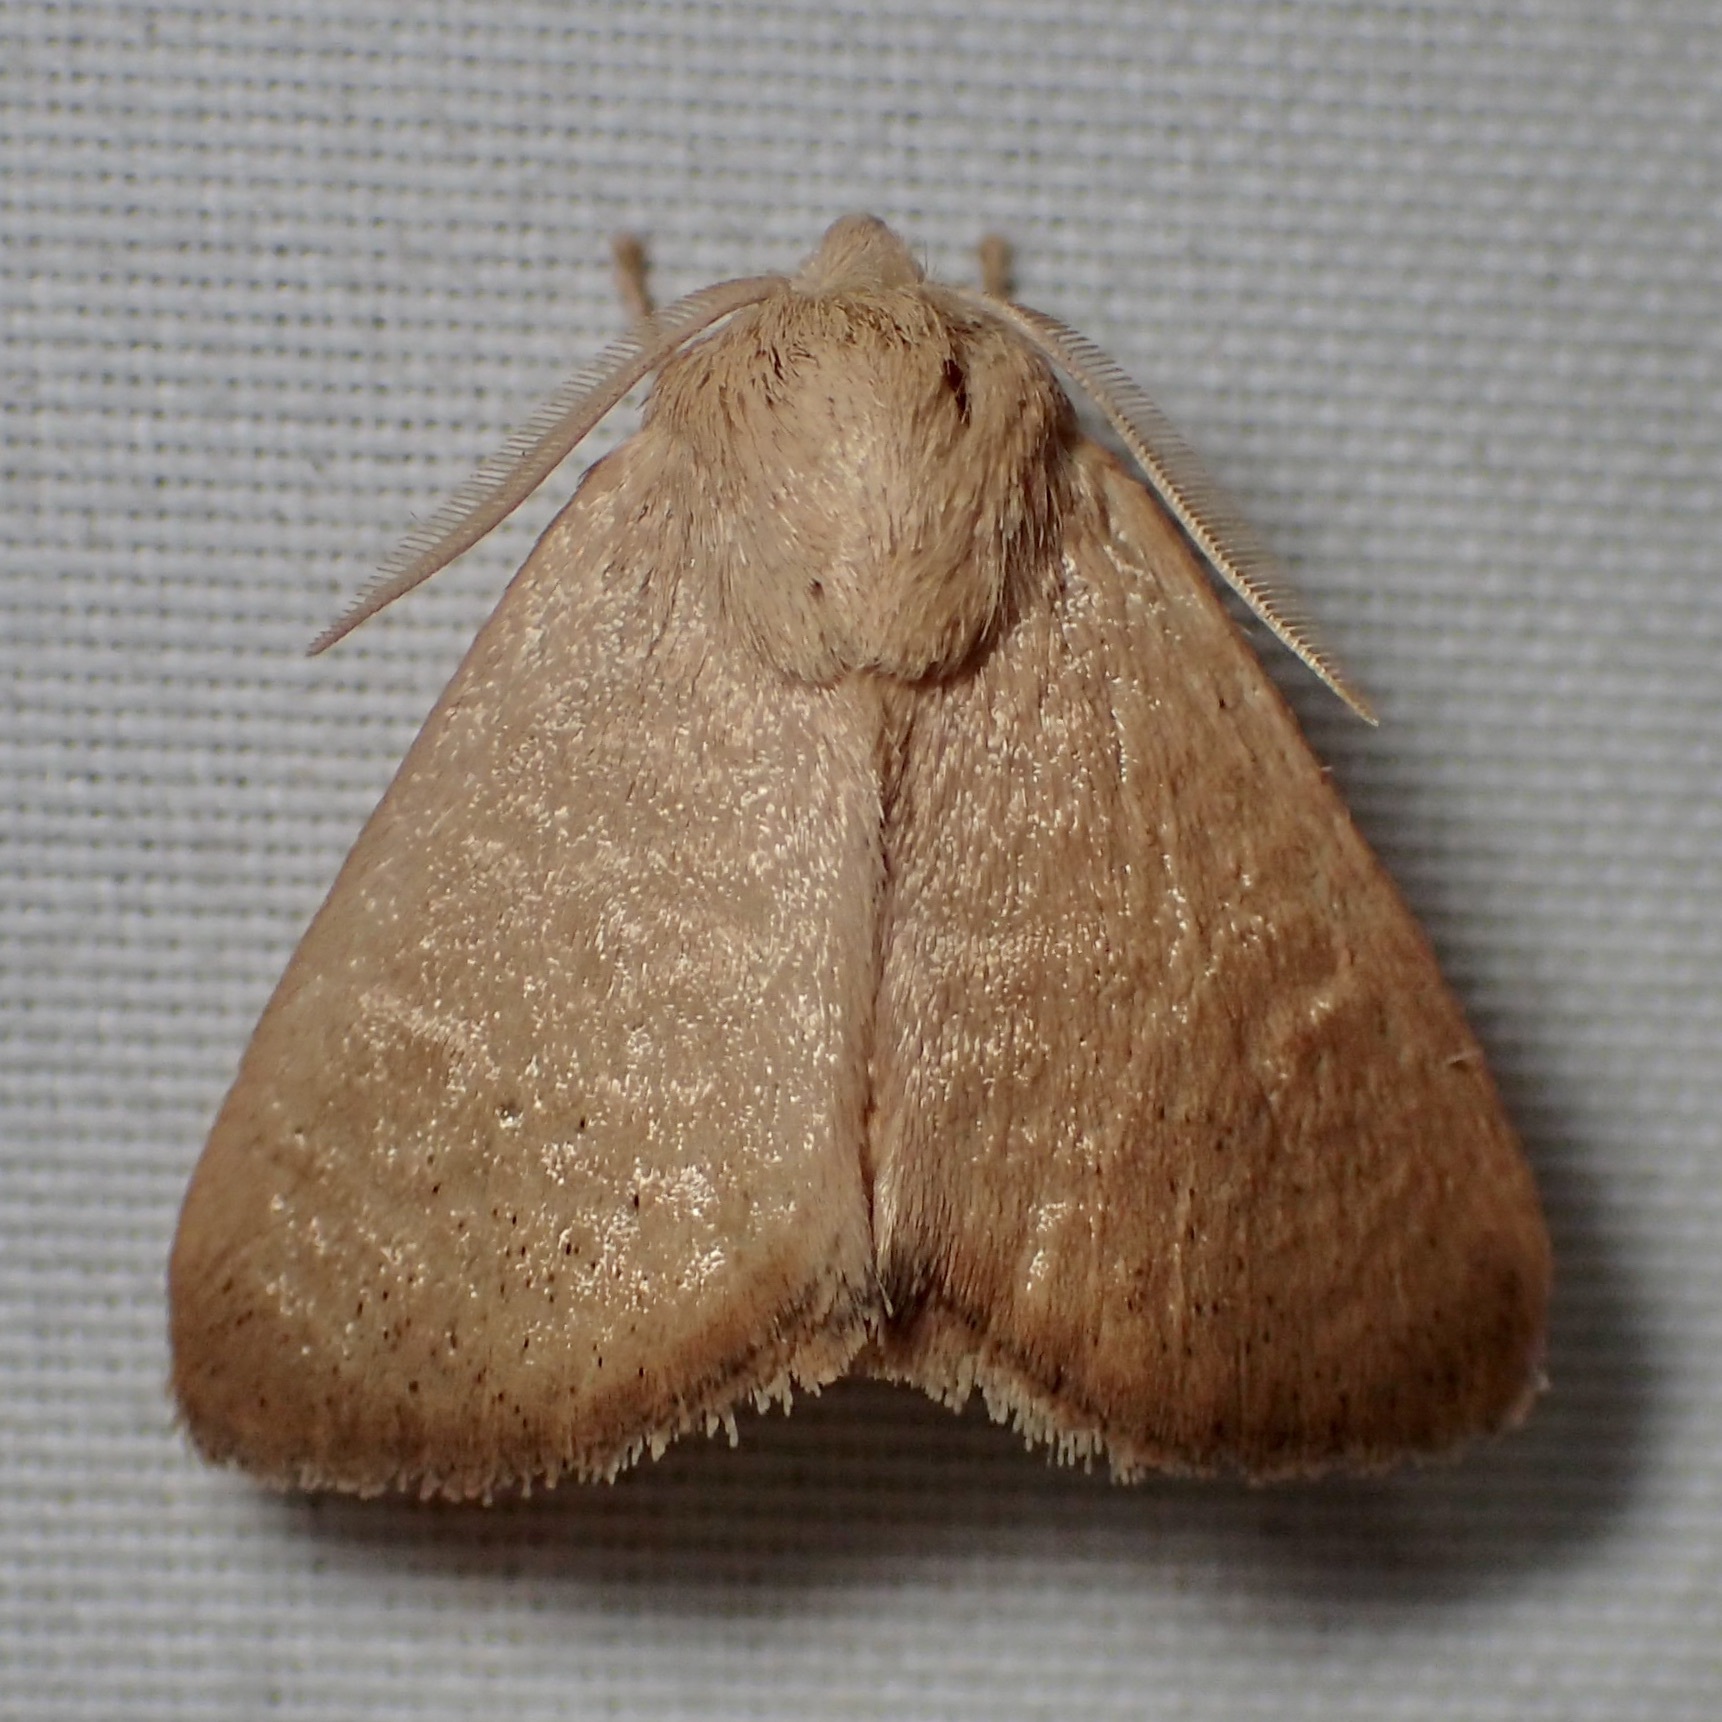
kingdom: Animalia
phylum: Arthropoda
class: Insecta
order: Lepidoptera
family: Limacodidae
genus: Isa
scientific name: Isa schaefferana
